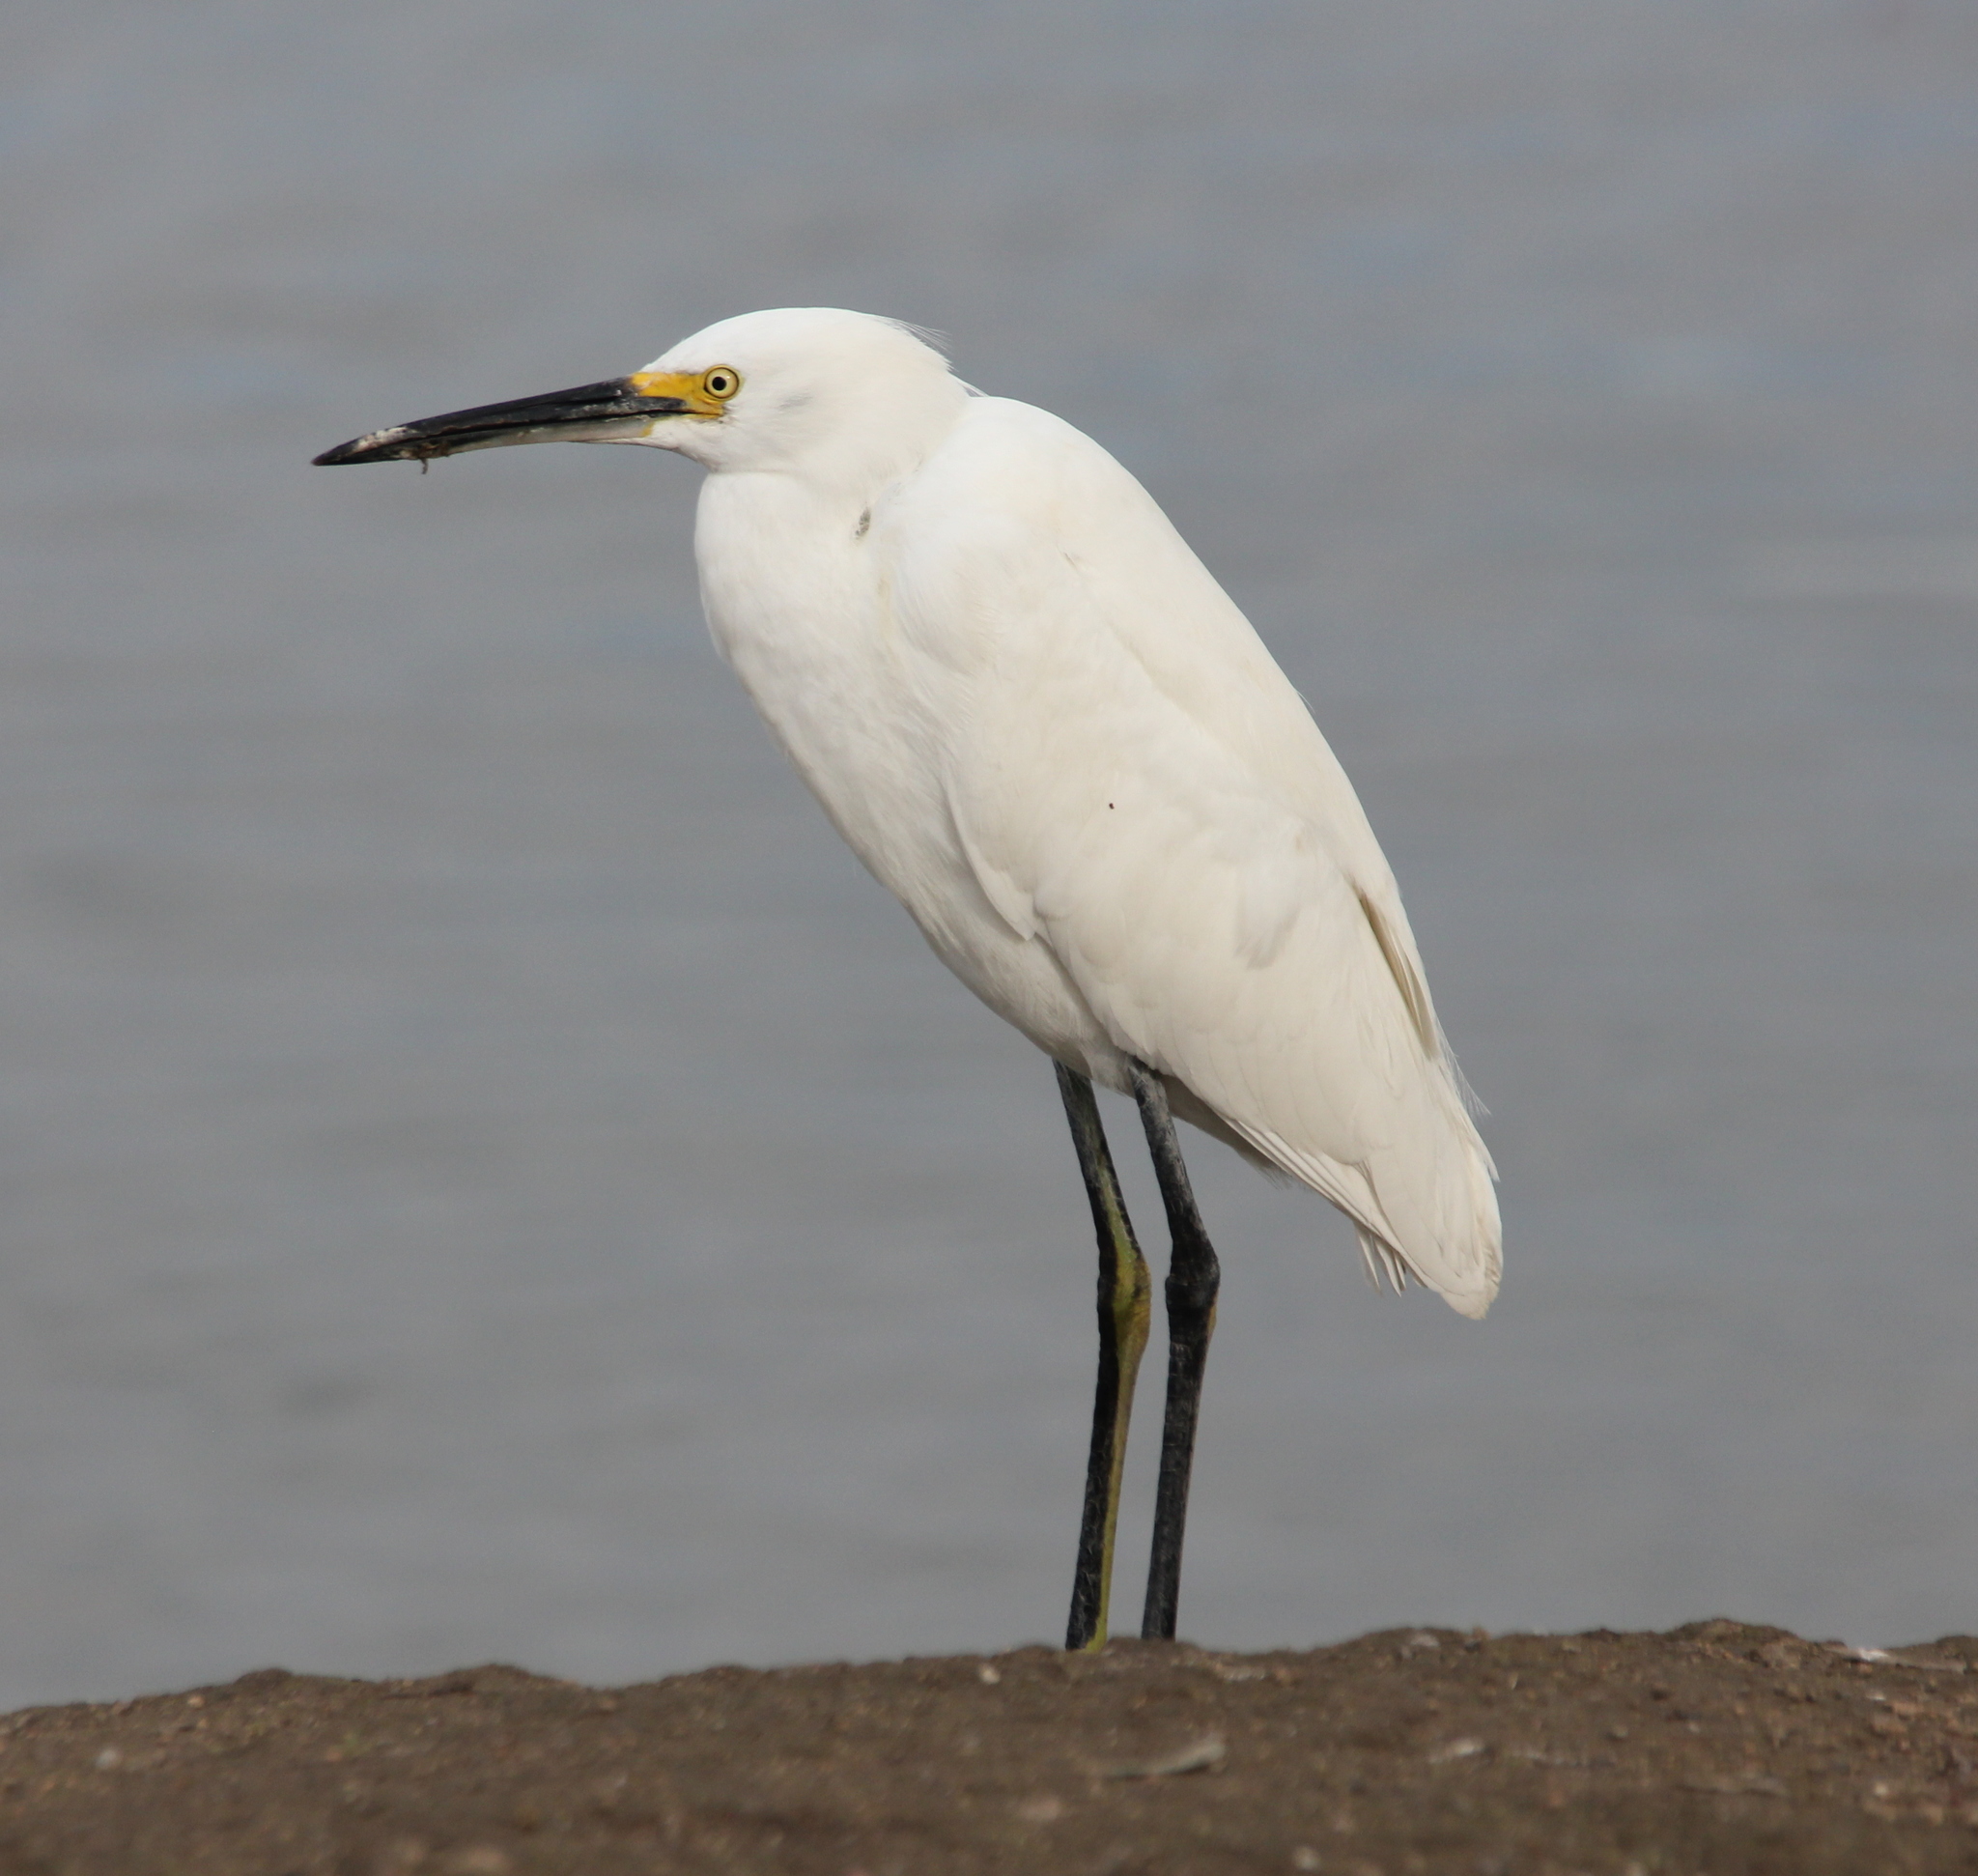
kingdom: Animalia
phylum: Chordata
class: Aves
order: Pelecaniformes
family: Ardeidae
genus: Egretta
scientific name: Egretta thula
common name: Snowy egret
